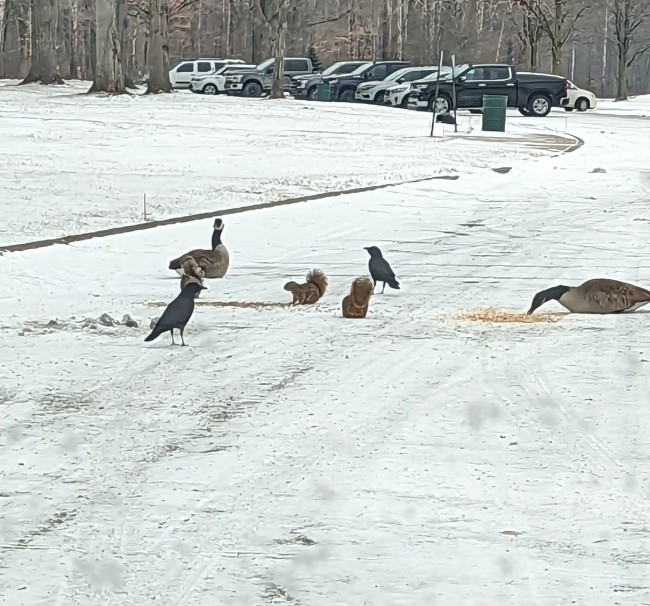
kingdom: Animalia
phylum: Chordata
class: Aves
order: Passeriformes
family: Corvidae
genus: Corvus
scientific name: Corvus brachyrhynchos
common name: American crow
